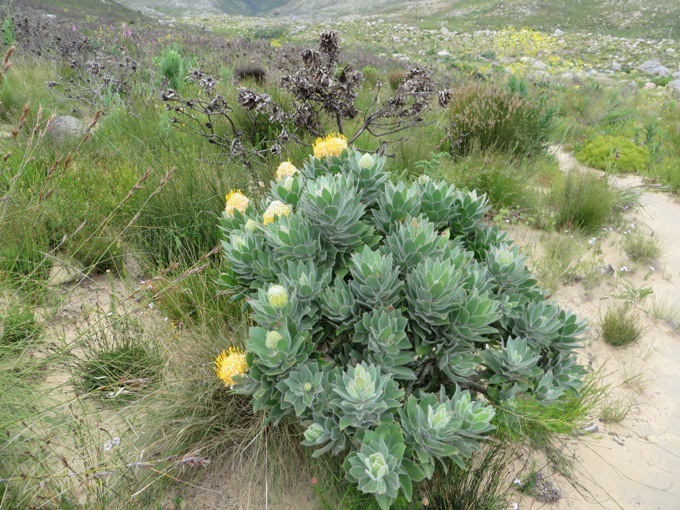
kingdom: Plantae
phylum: Tracheophyta
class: Magnoliopsida
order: Proteales
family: Proteaceae
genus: Leucospermum
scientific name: Leucospermum conocarpodendron
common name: Tree pincushion
